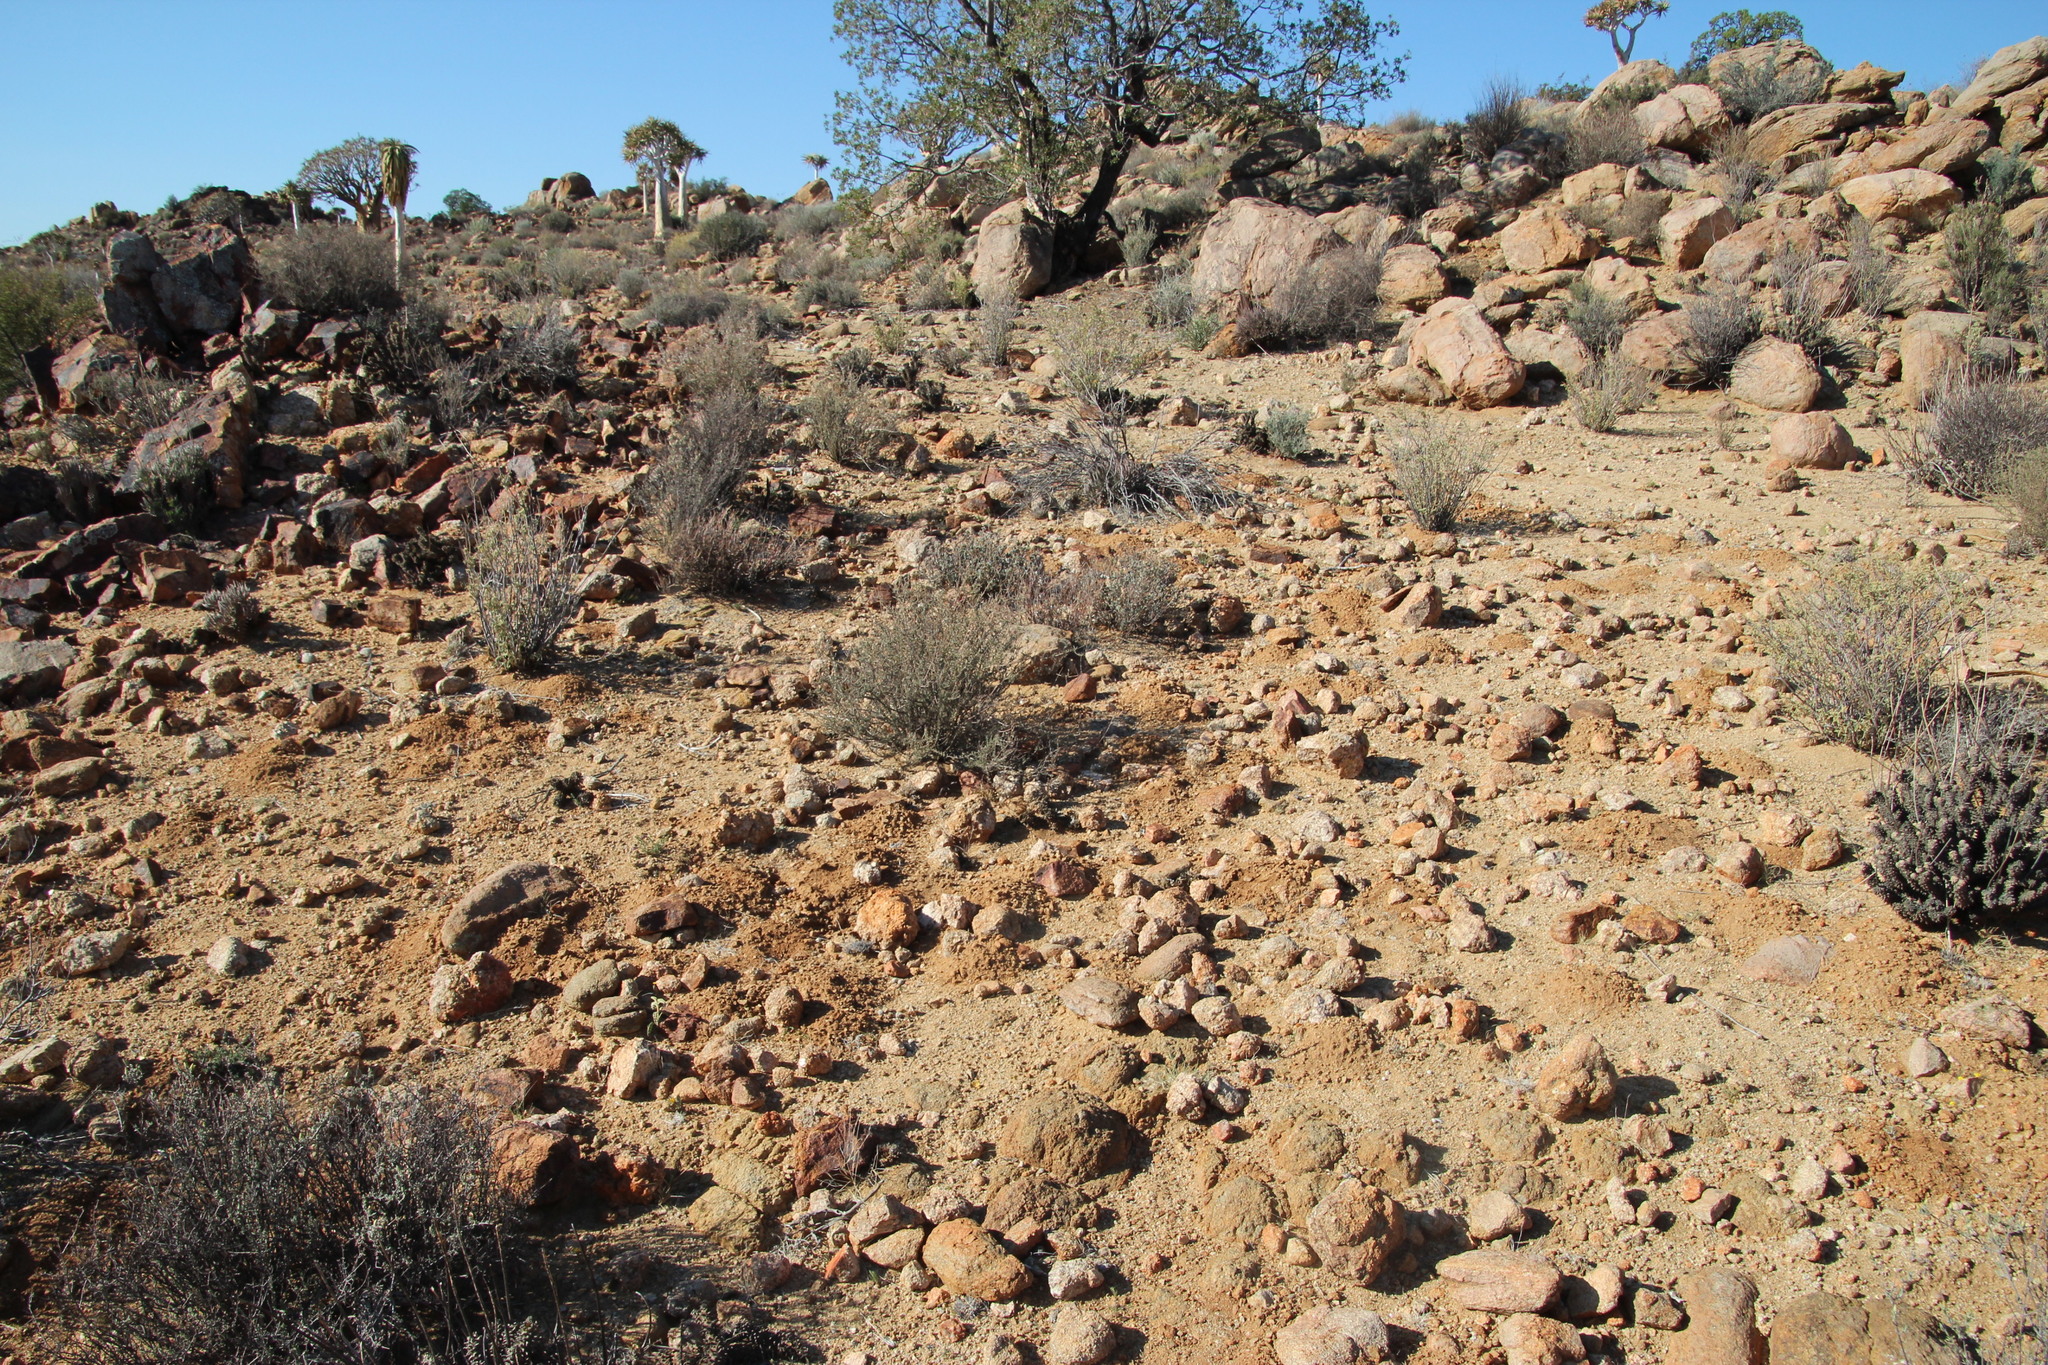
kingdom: Animalia
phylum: Chordata
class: Mammalia
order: Rodentia
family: Bathyergidae
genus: Cryptomys
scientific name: Cryptomys hottentotus
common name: Southern african mole-rat
